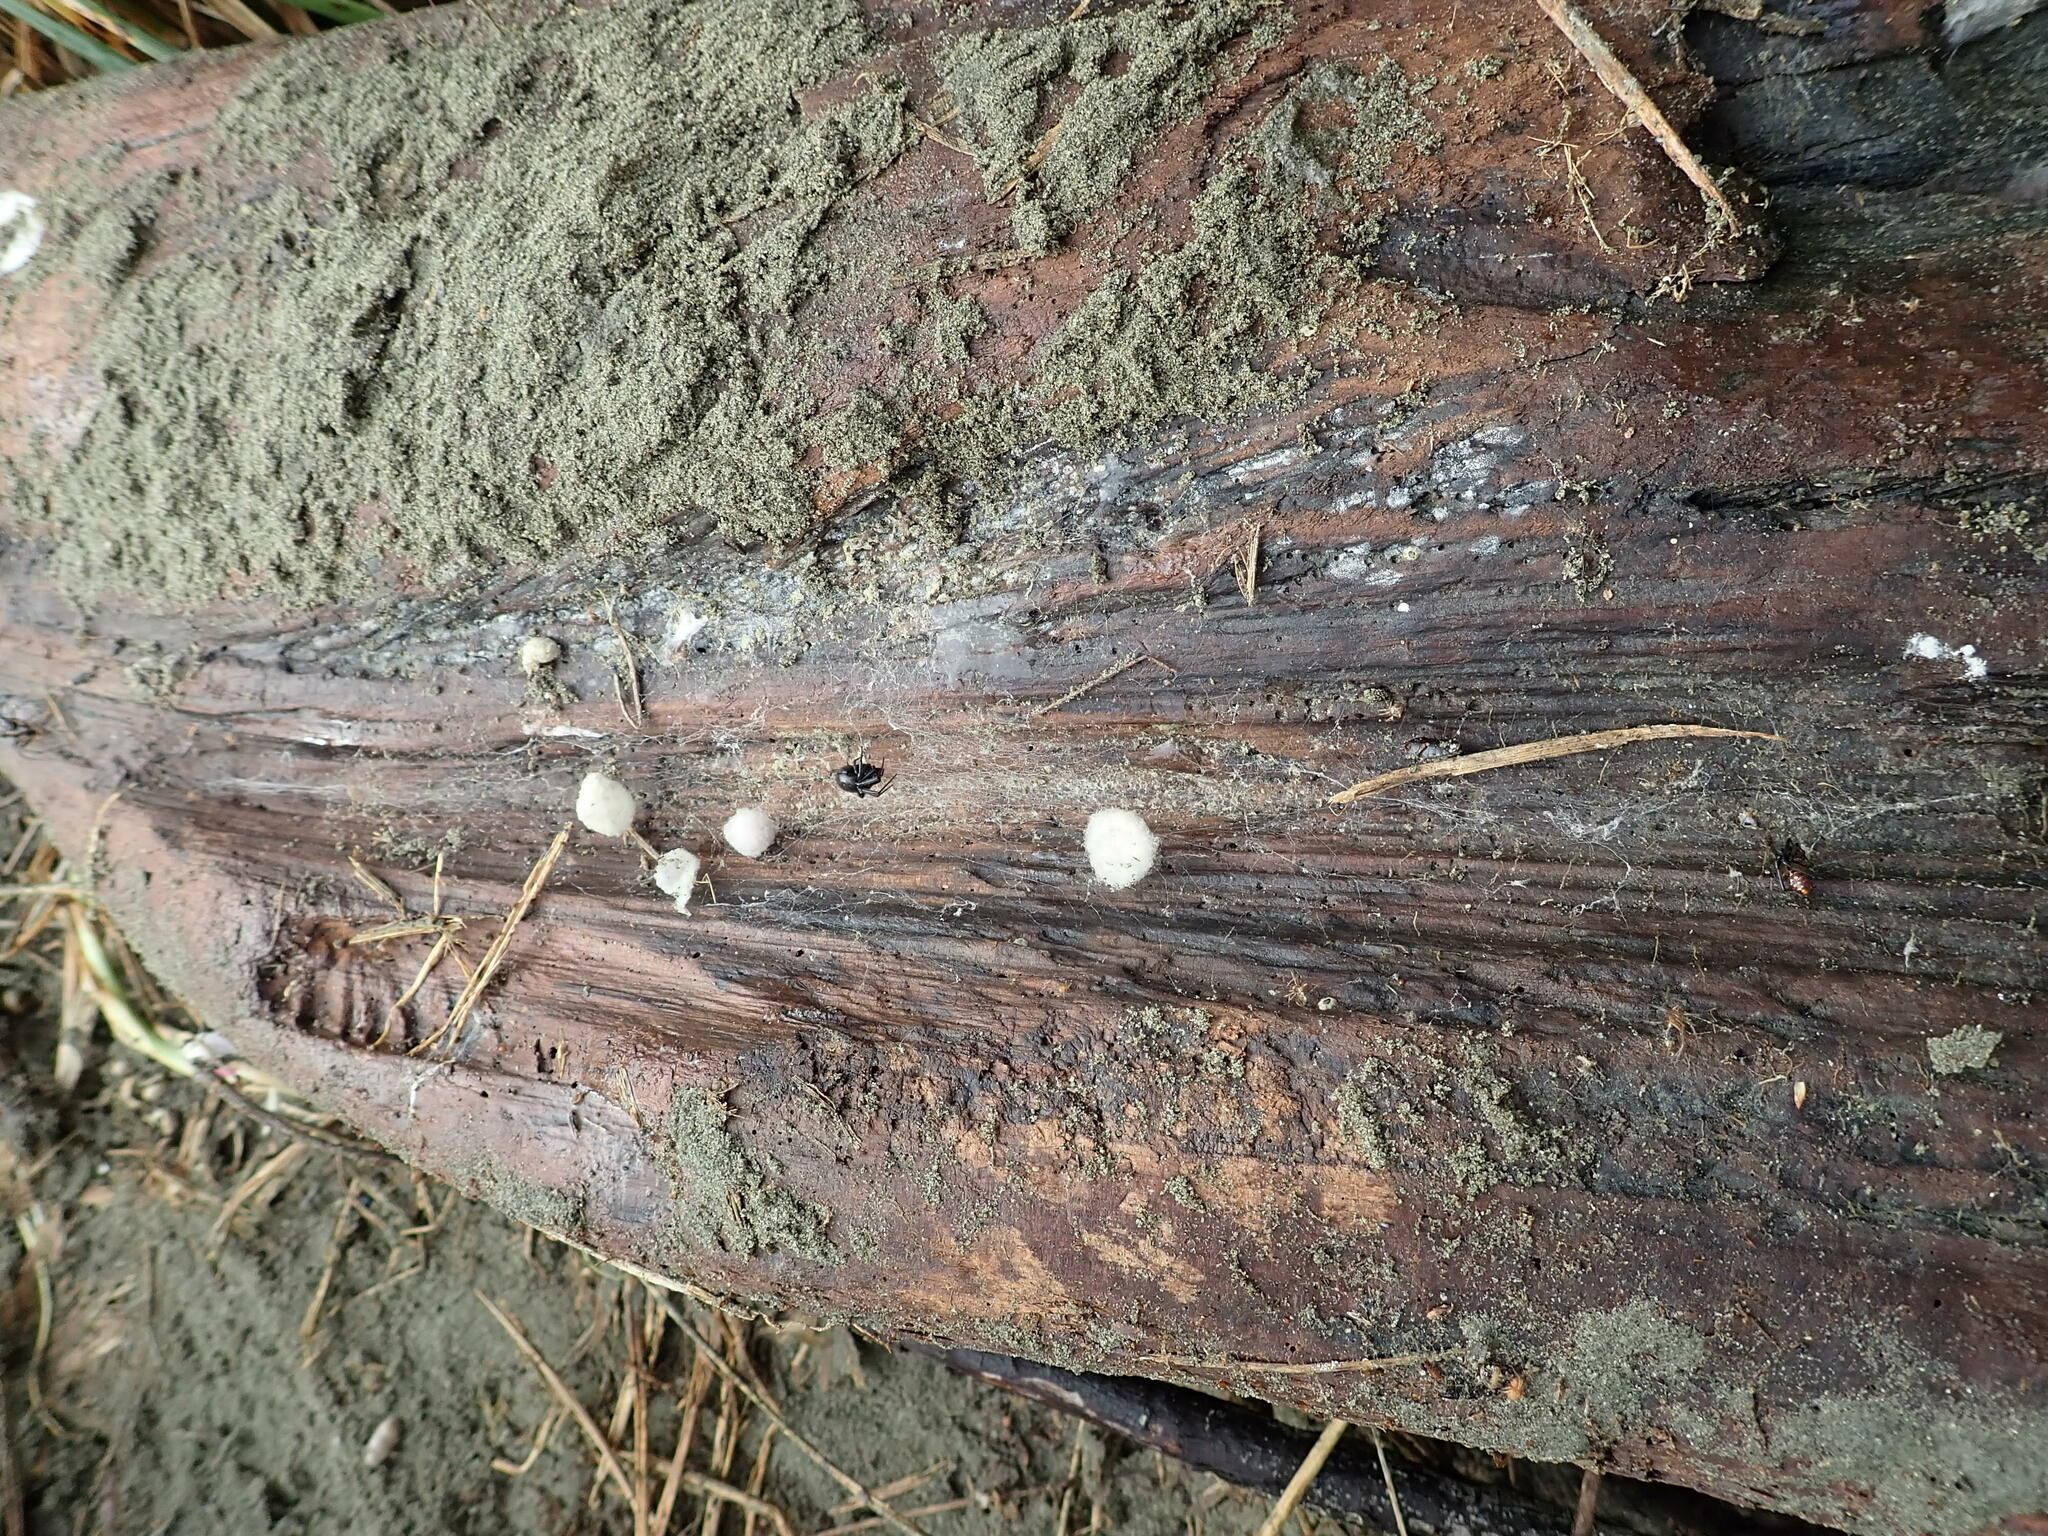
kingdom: Animalia
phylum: Arthropoda
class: Arachnida
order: Araneae
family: Theridiidae
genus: Steatoda
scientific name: Steatoda capensis
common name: Cobweb weaver
